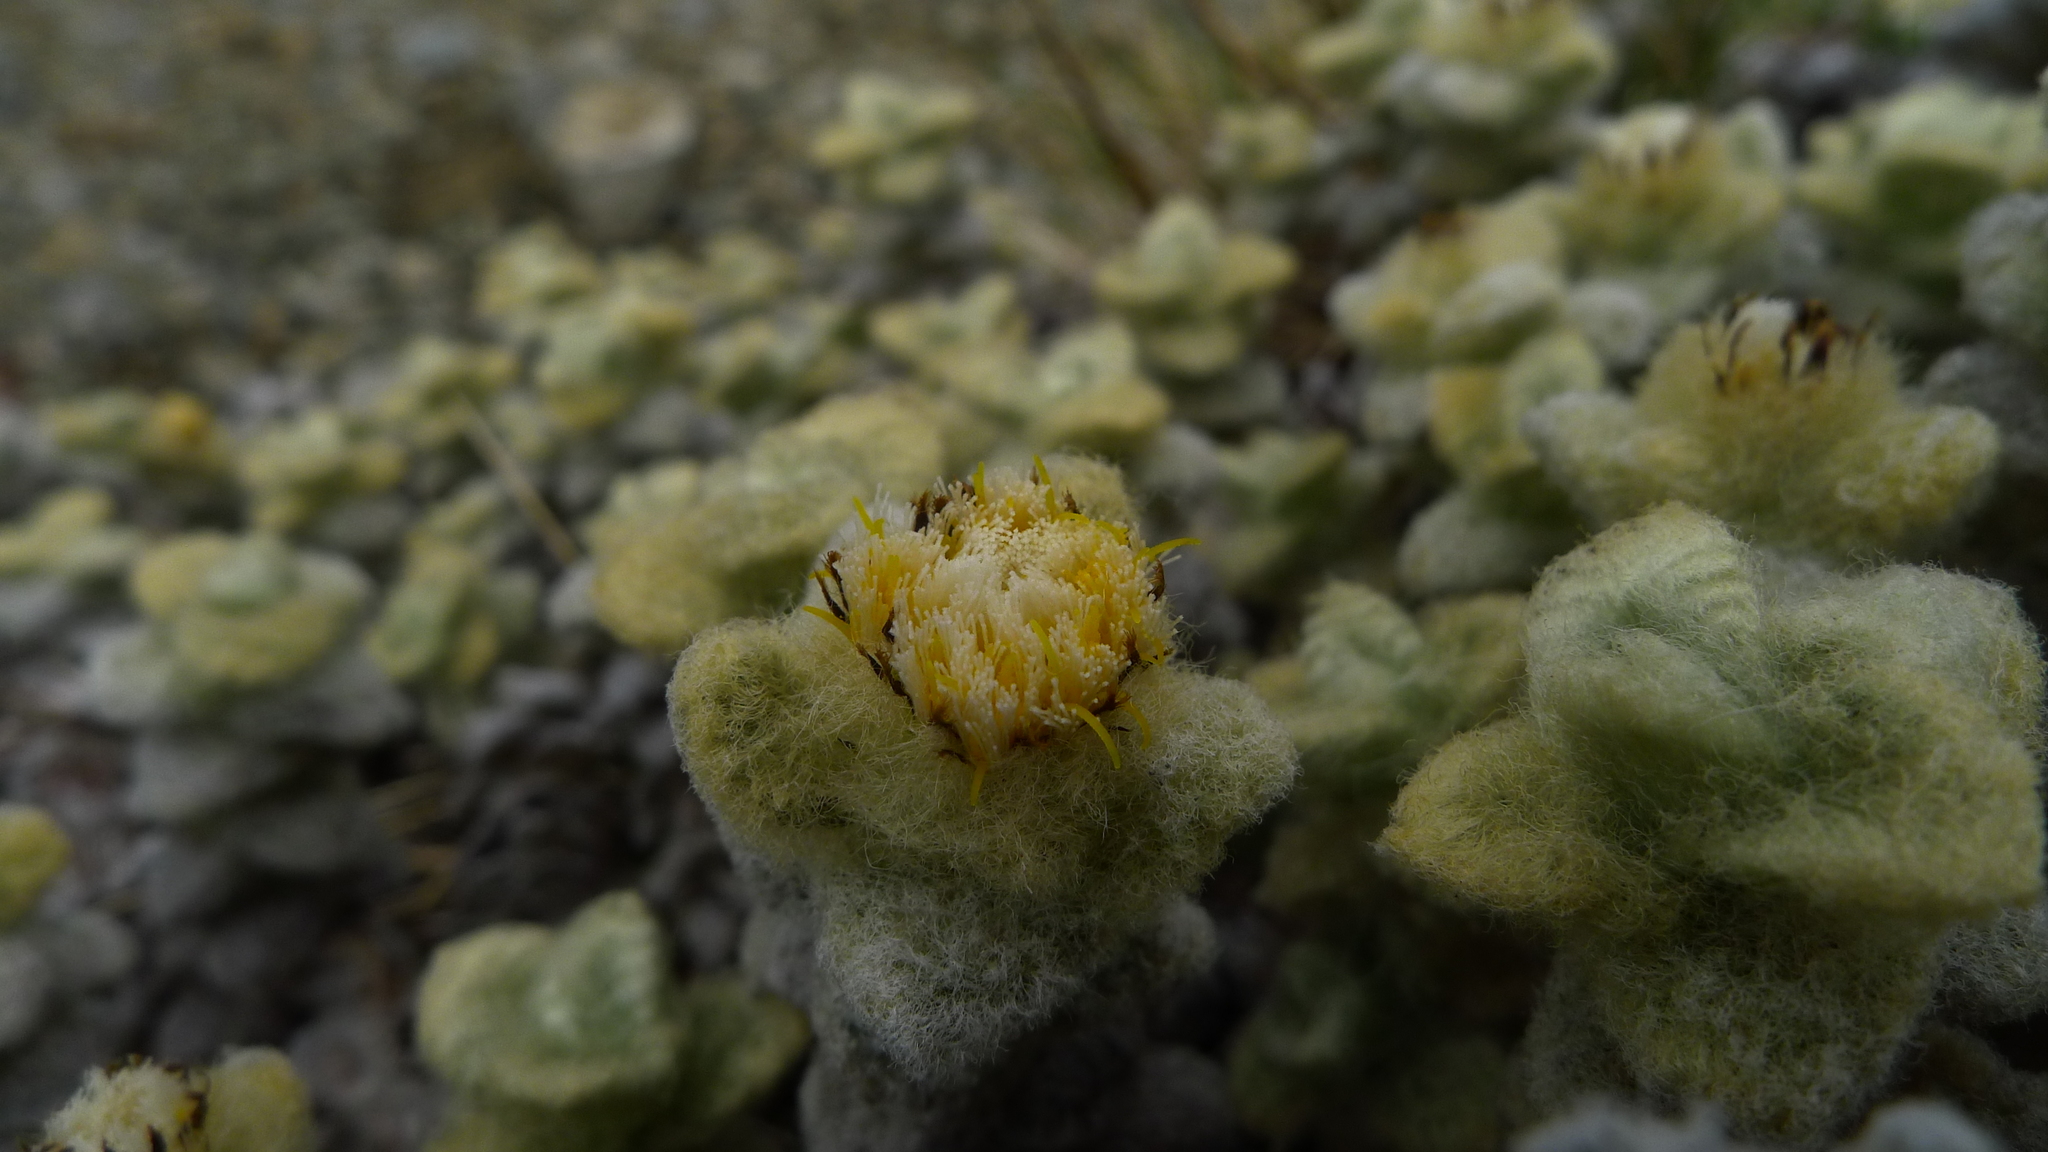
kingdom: Plantae
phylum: Tracheophyta
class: Magnoliopsida
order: Asterales
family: Asteraceae
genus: Haastia
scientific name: Haastia recurva
